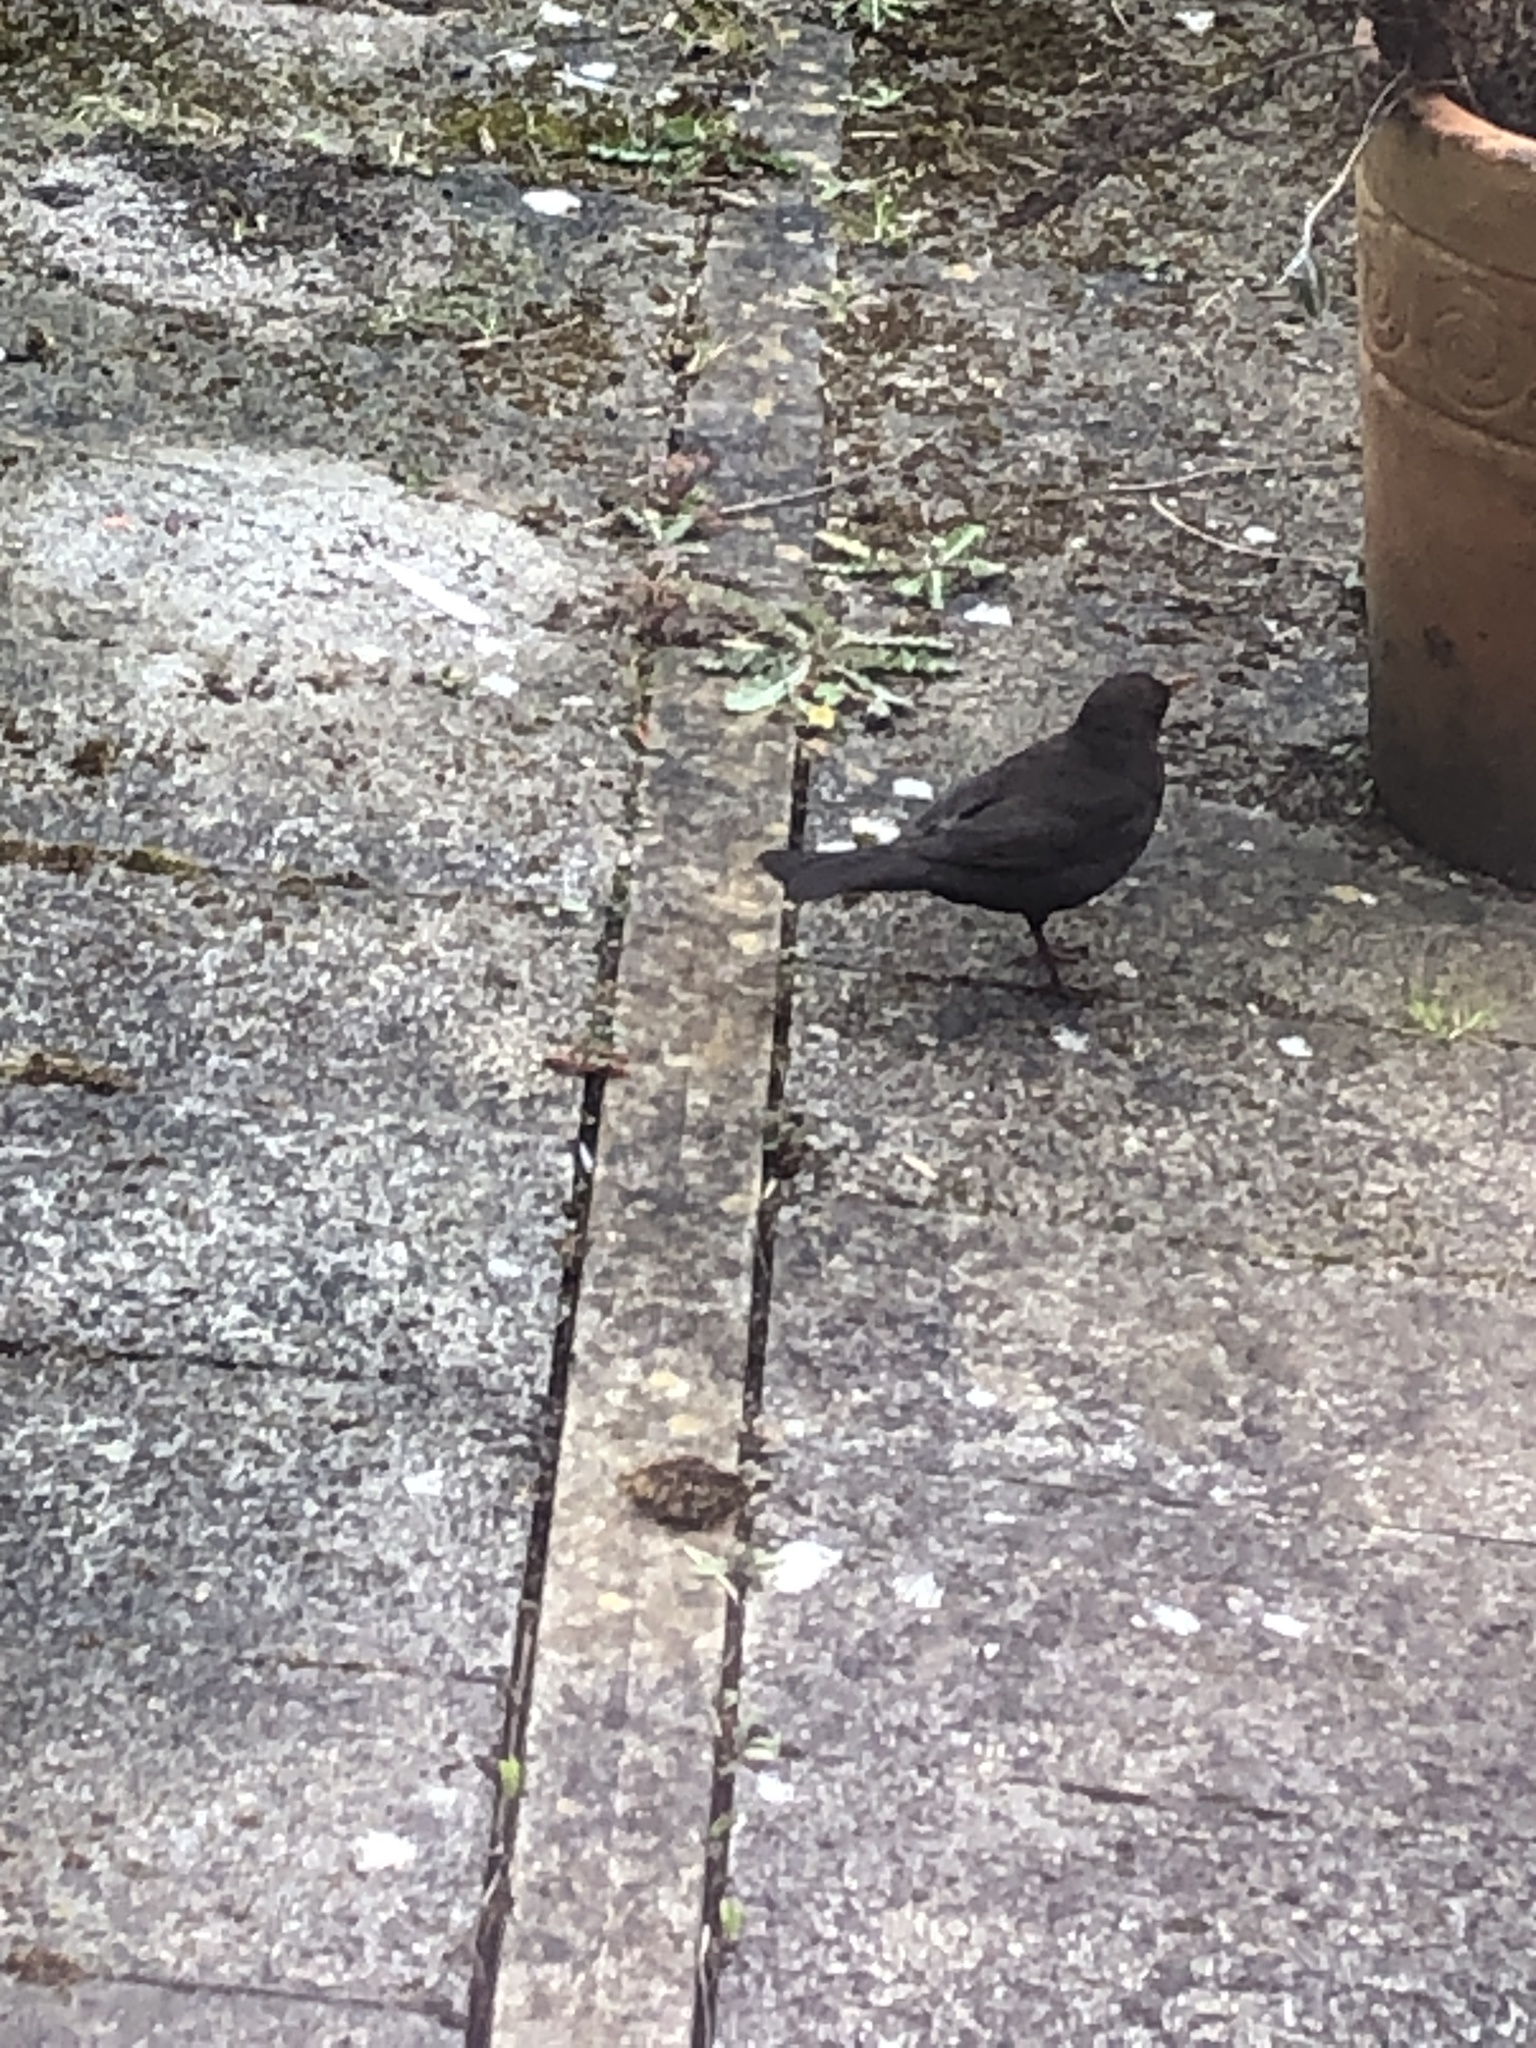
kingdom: Animalia
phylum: Chordata
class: Aves
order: Passeriformes
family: Turdidae
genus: Turdus
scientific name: Turdus merula
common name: Common blackbird
